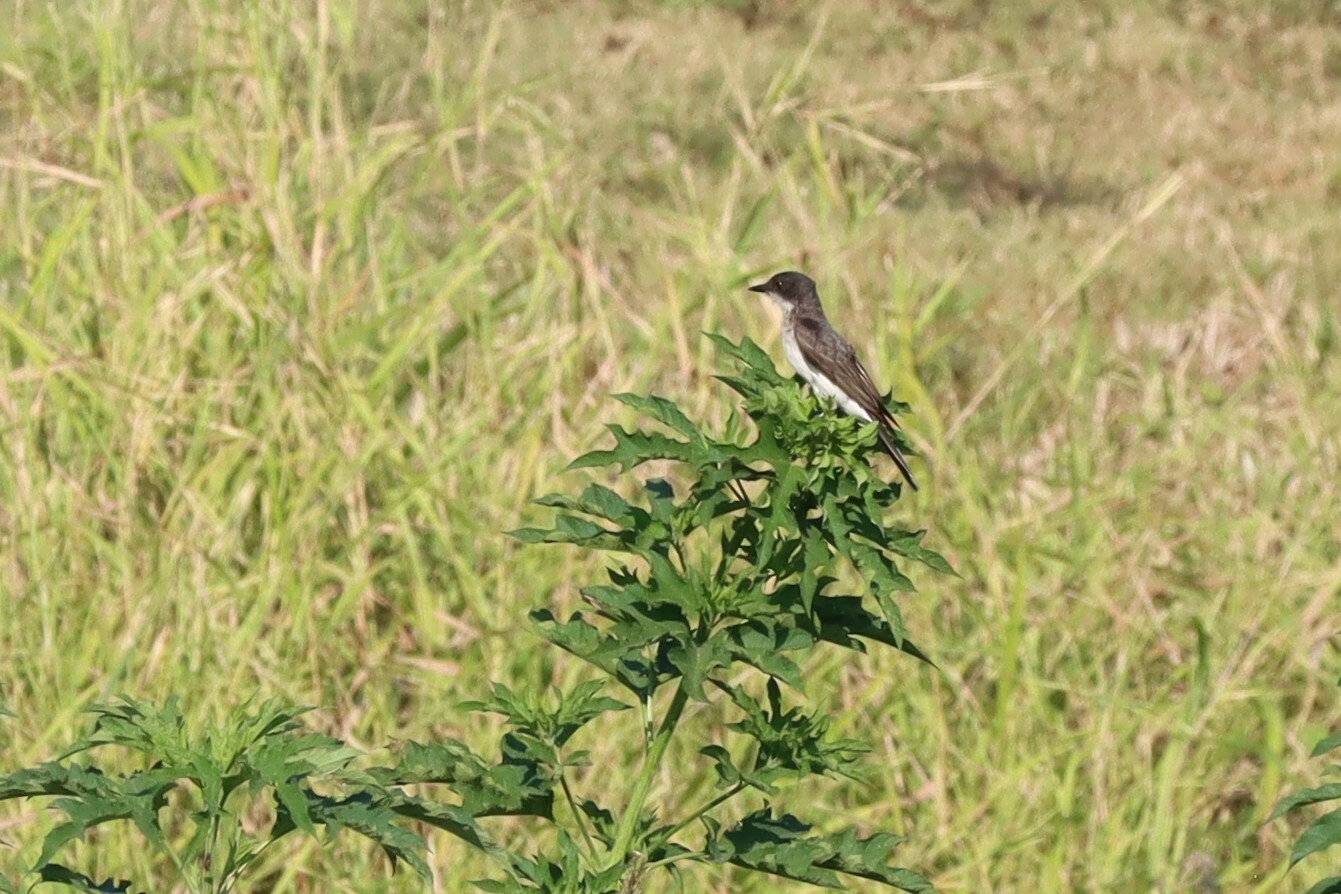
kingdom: Animalia
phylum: Chordata
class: Aves
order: Passeriformes
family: Tyrannidae
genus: Tyrannus
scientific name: Tyrannus tyrannus
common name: Eastern kingbird
